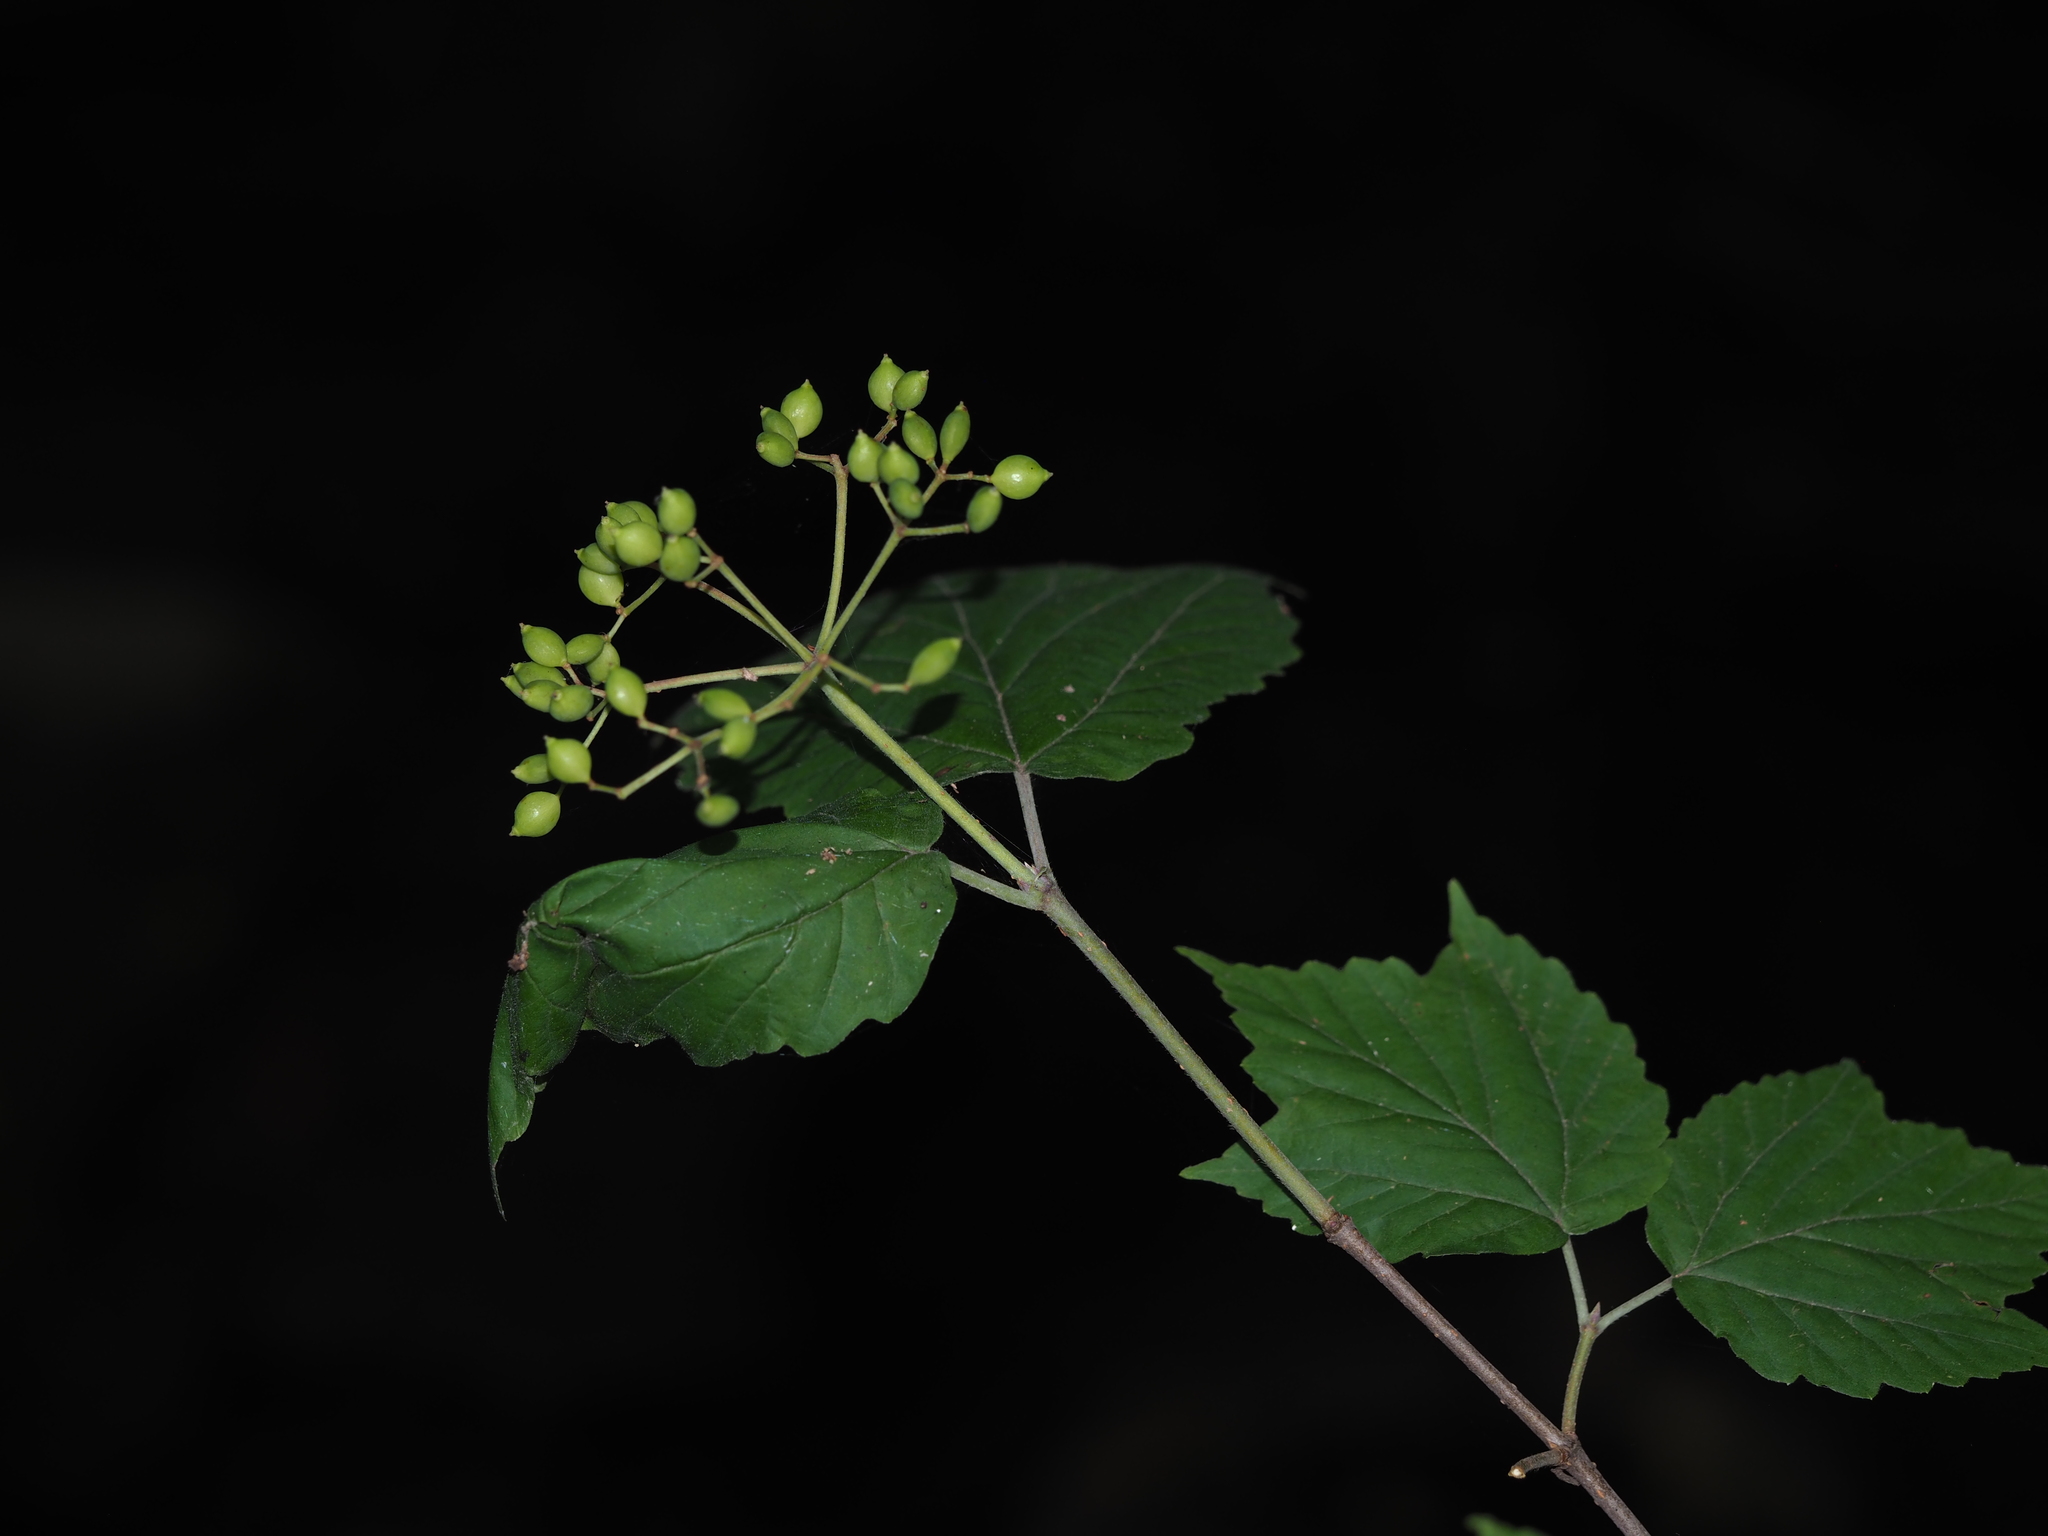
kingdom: Plantae
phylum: Tracheophyta
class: Magnoliopsida
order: Dipsacales
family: Viburnaceae
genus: Viburnum
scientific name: Viburnum acerifolium
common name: Dockmackie
